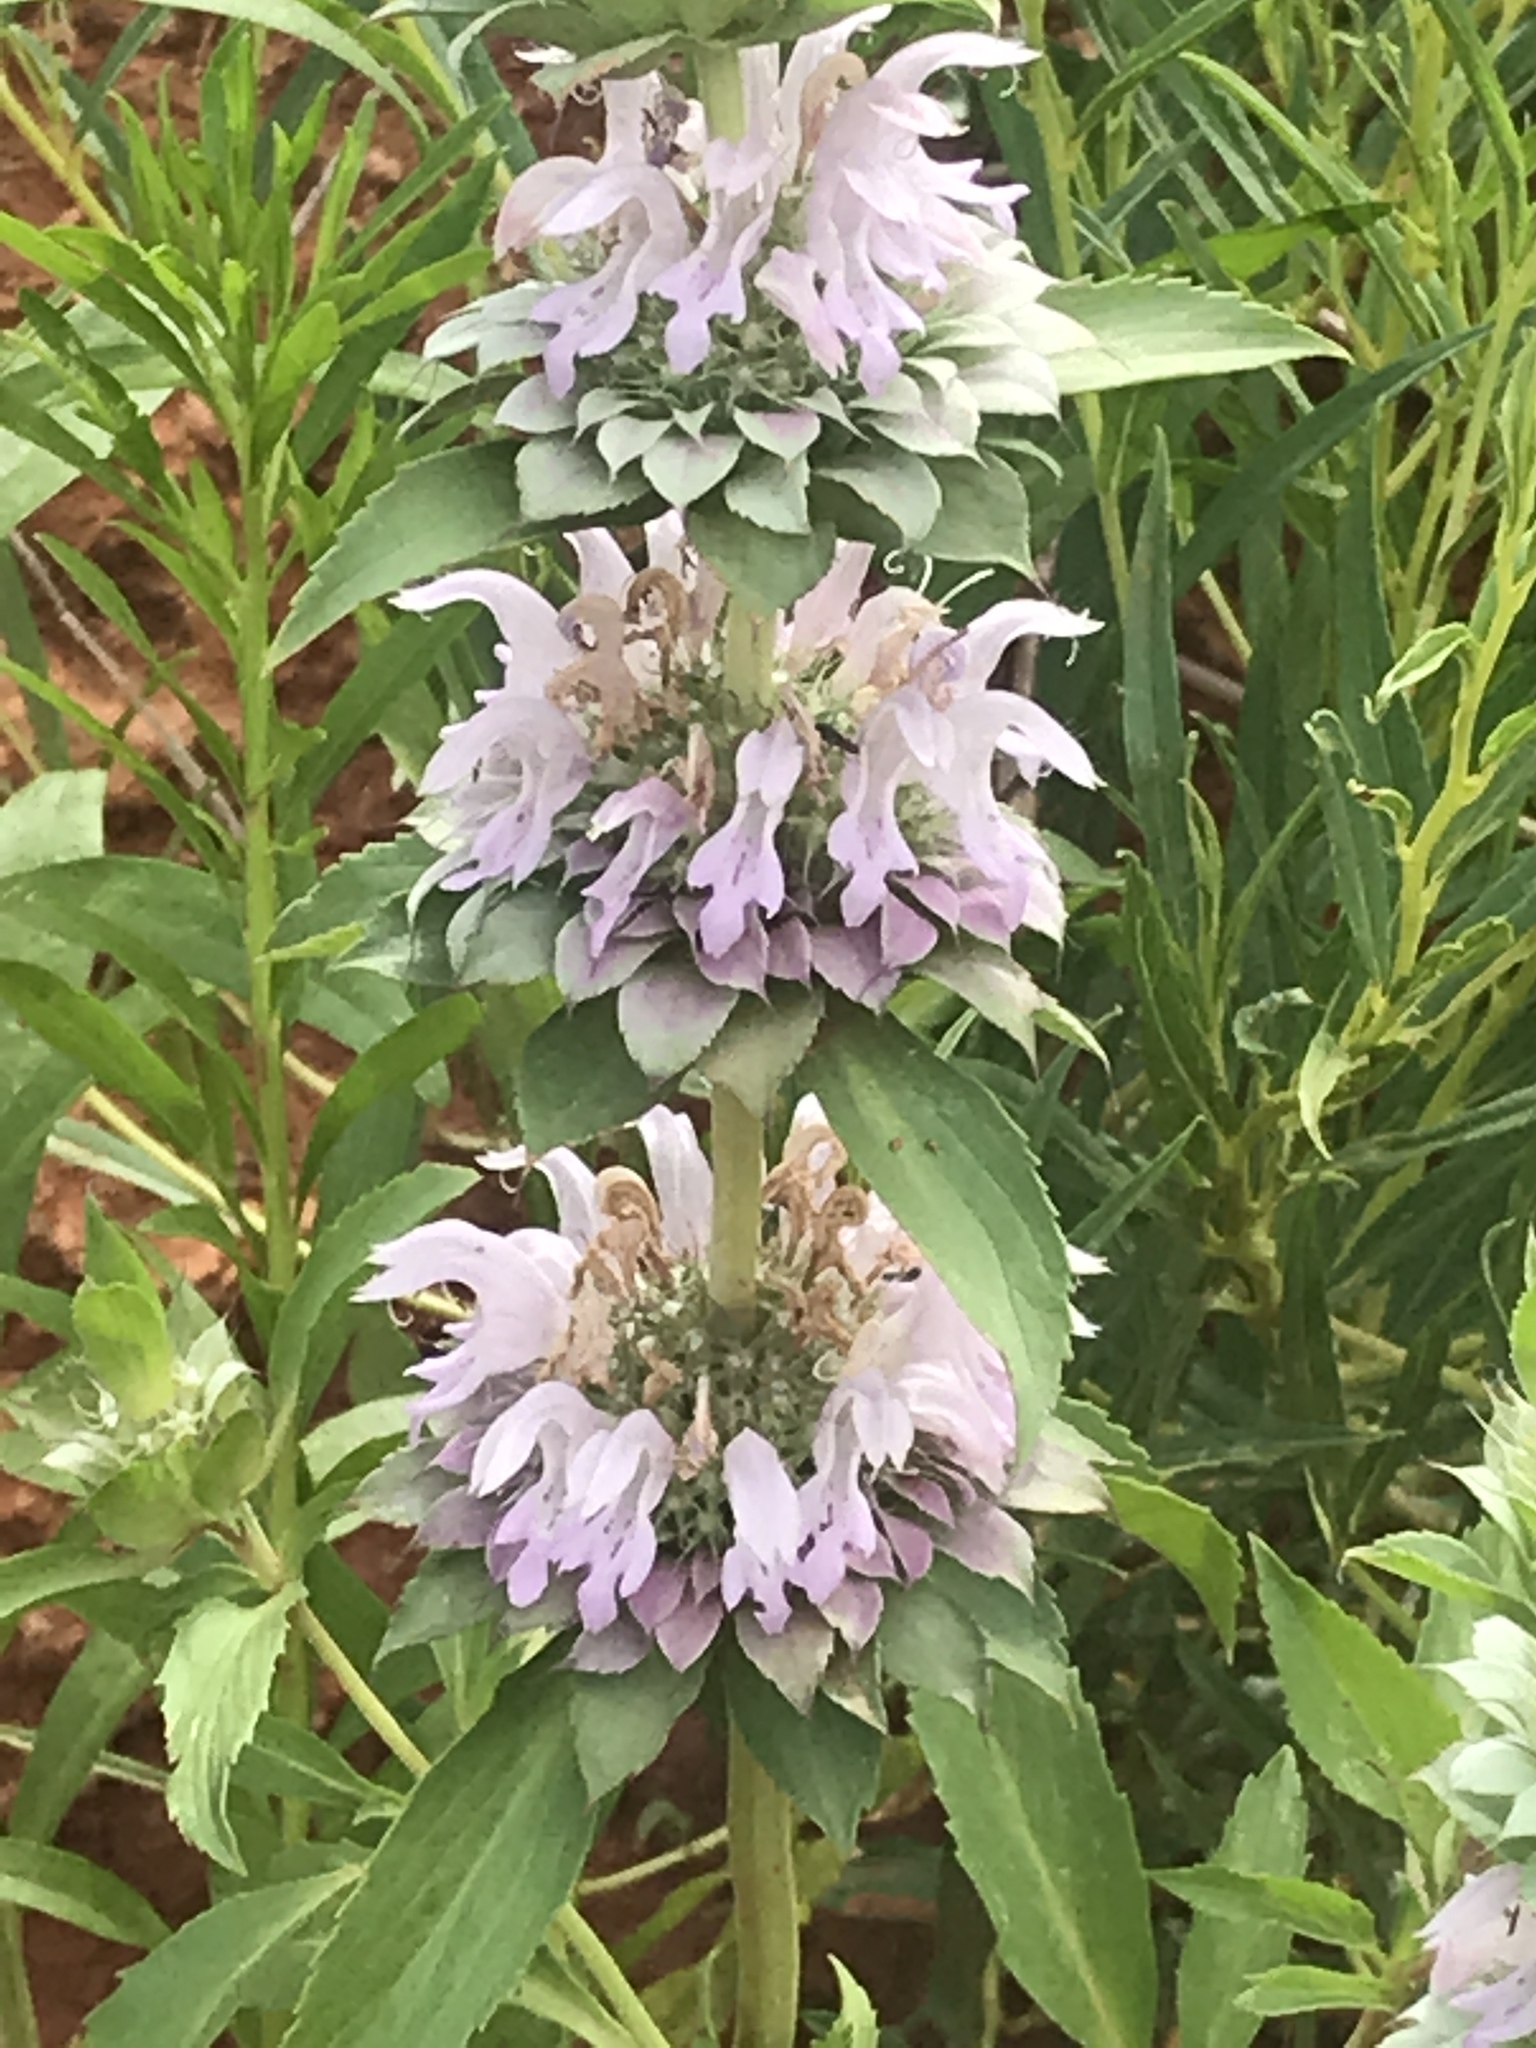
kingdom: Plantae
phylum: Tracheophyta
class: Magnoliopsida
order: Lamiales
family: Lamiaceae
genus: Monarda
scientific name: Monarda citriodora
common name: Lemon beebalm
